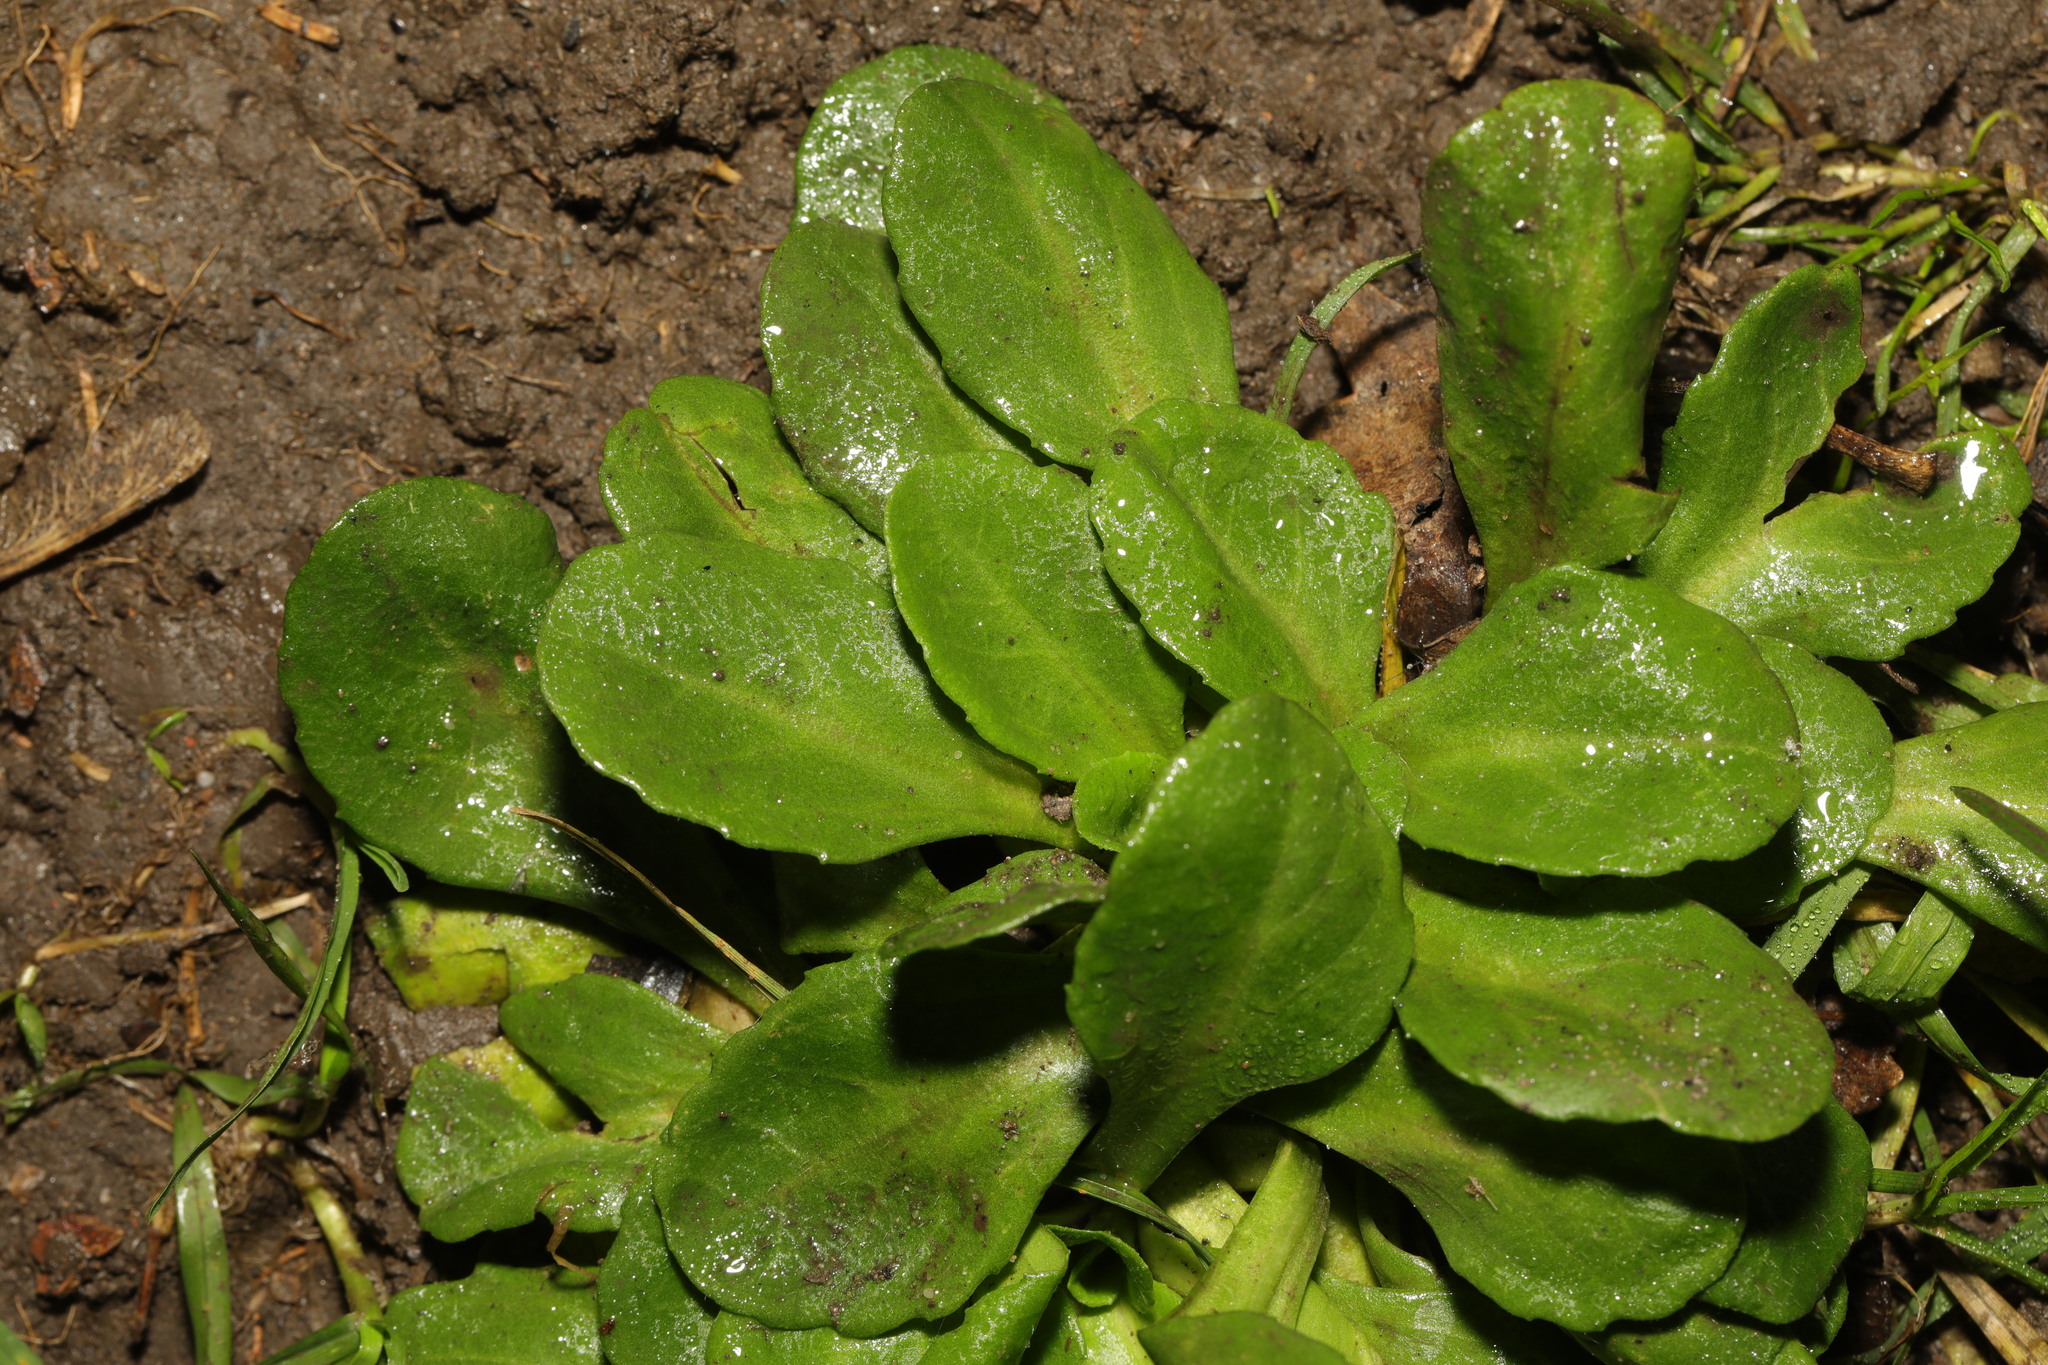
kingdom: Plantae
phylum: Tracheophyta
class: Magnoliopsida
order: Asterales
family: Asteraceae
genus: Bellis
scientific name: Bellis perennis
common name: Lawndaisy
